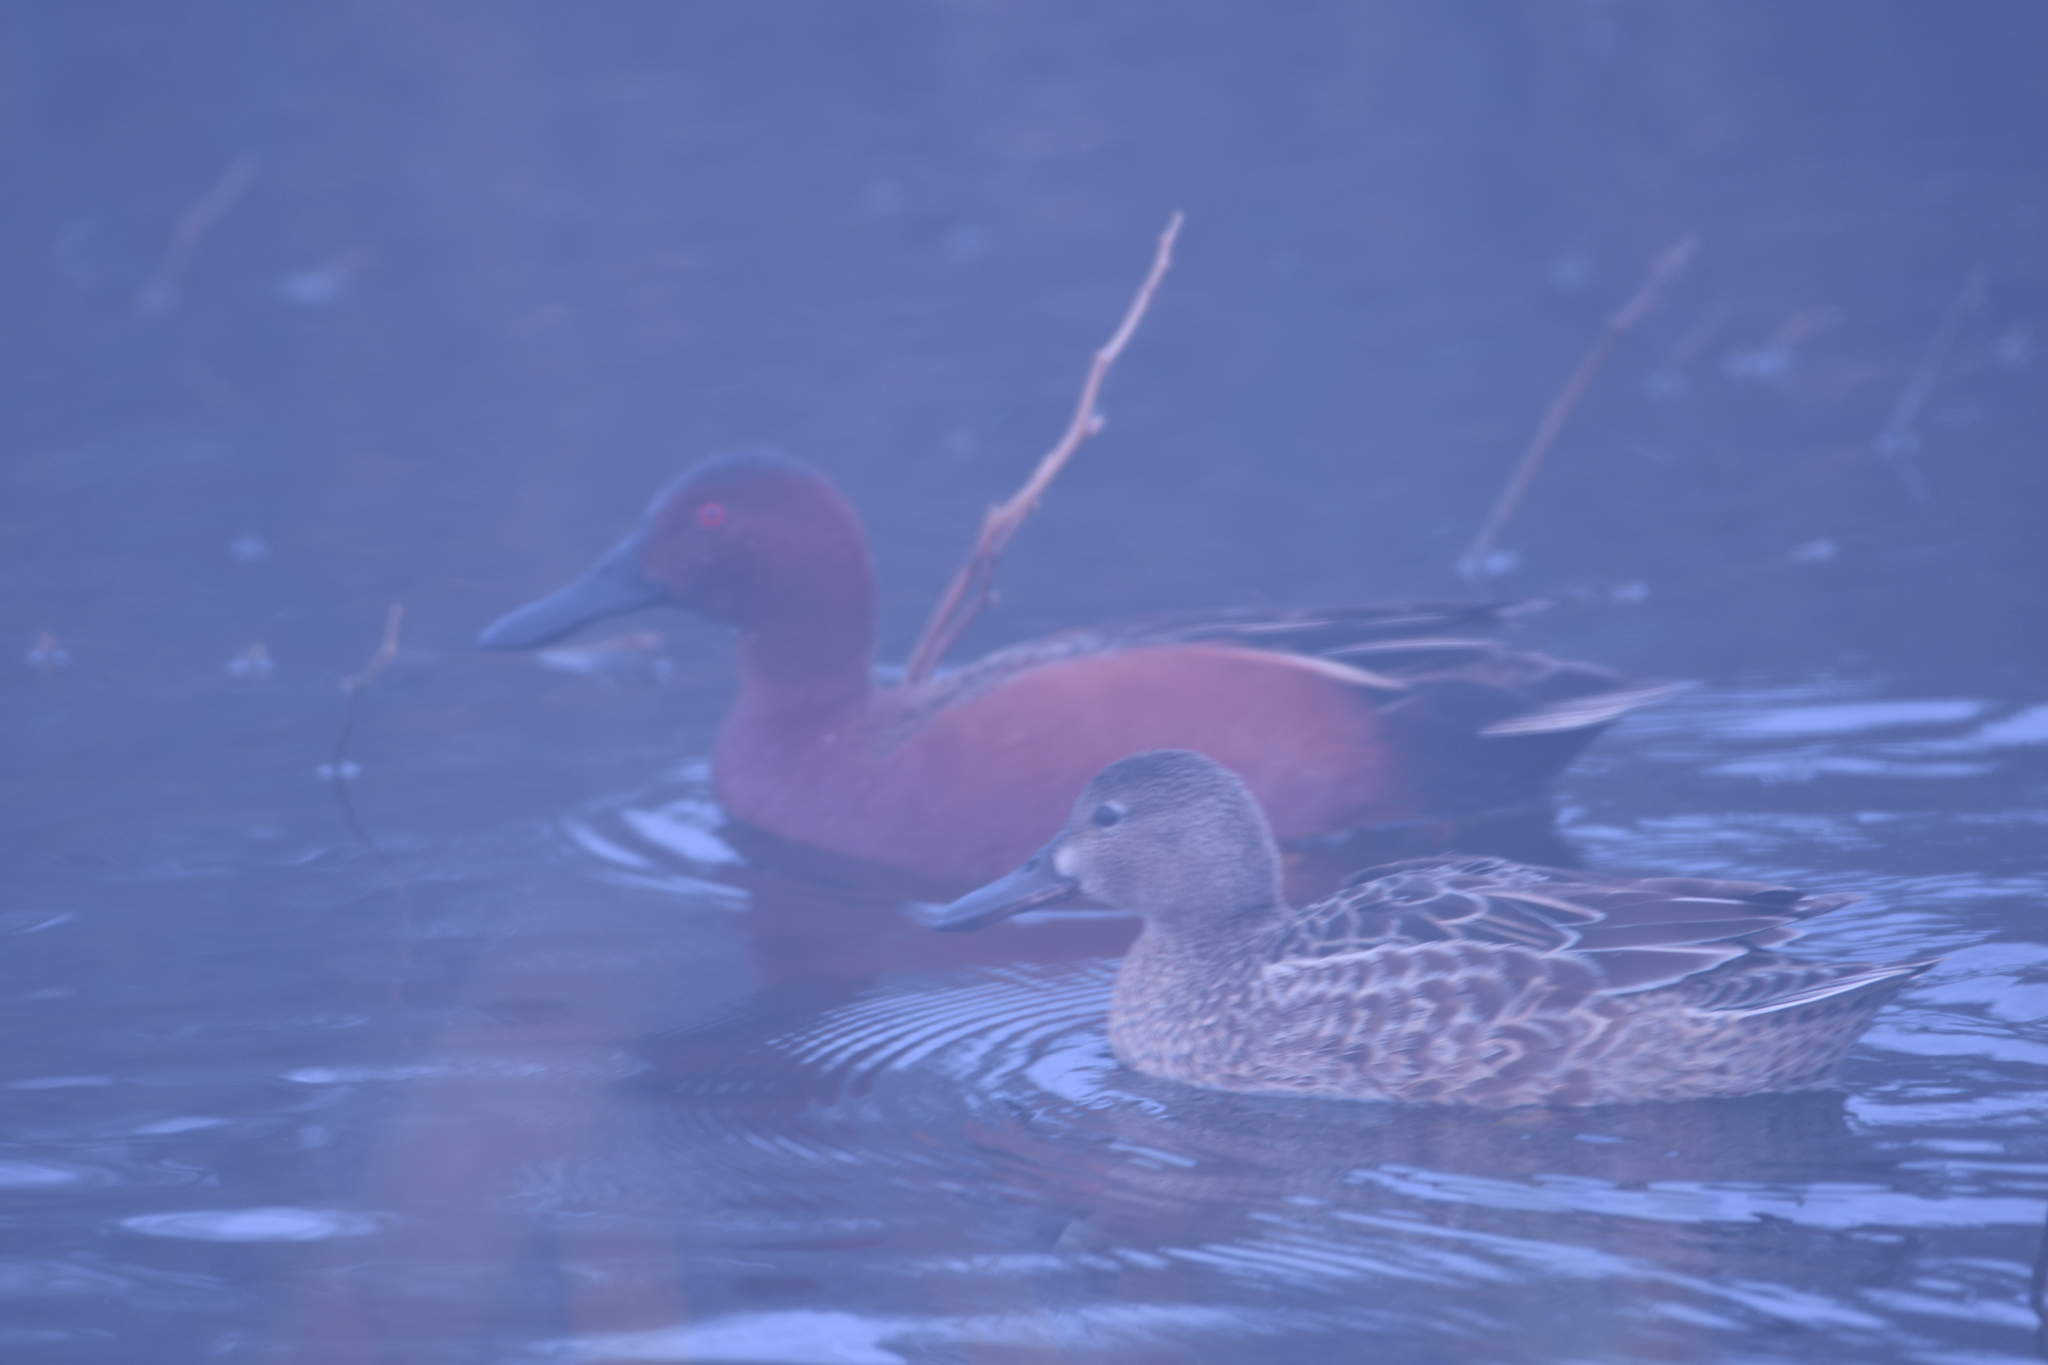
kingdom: Animalia
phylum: Chordata
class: Aves
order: Anseriformes
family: Anatidae
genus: Spatula
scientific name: Spatula cyanoptera
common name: Cinnamon teal
